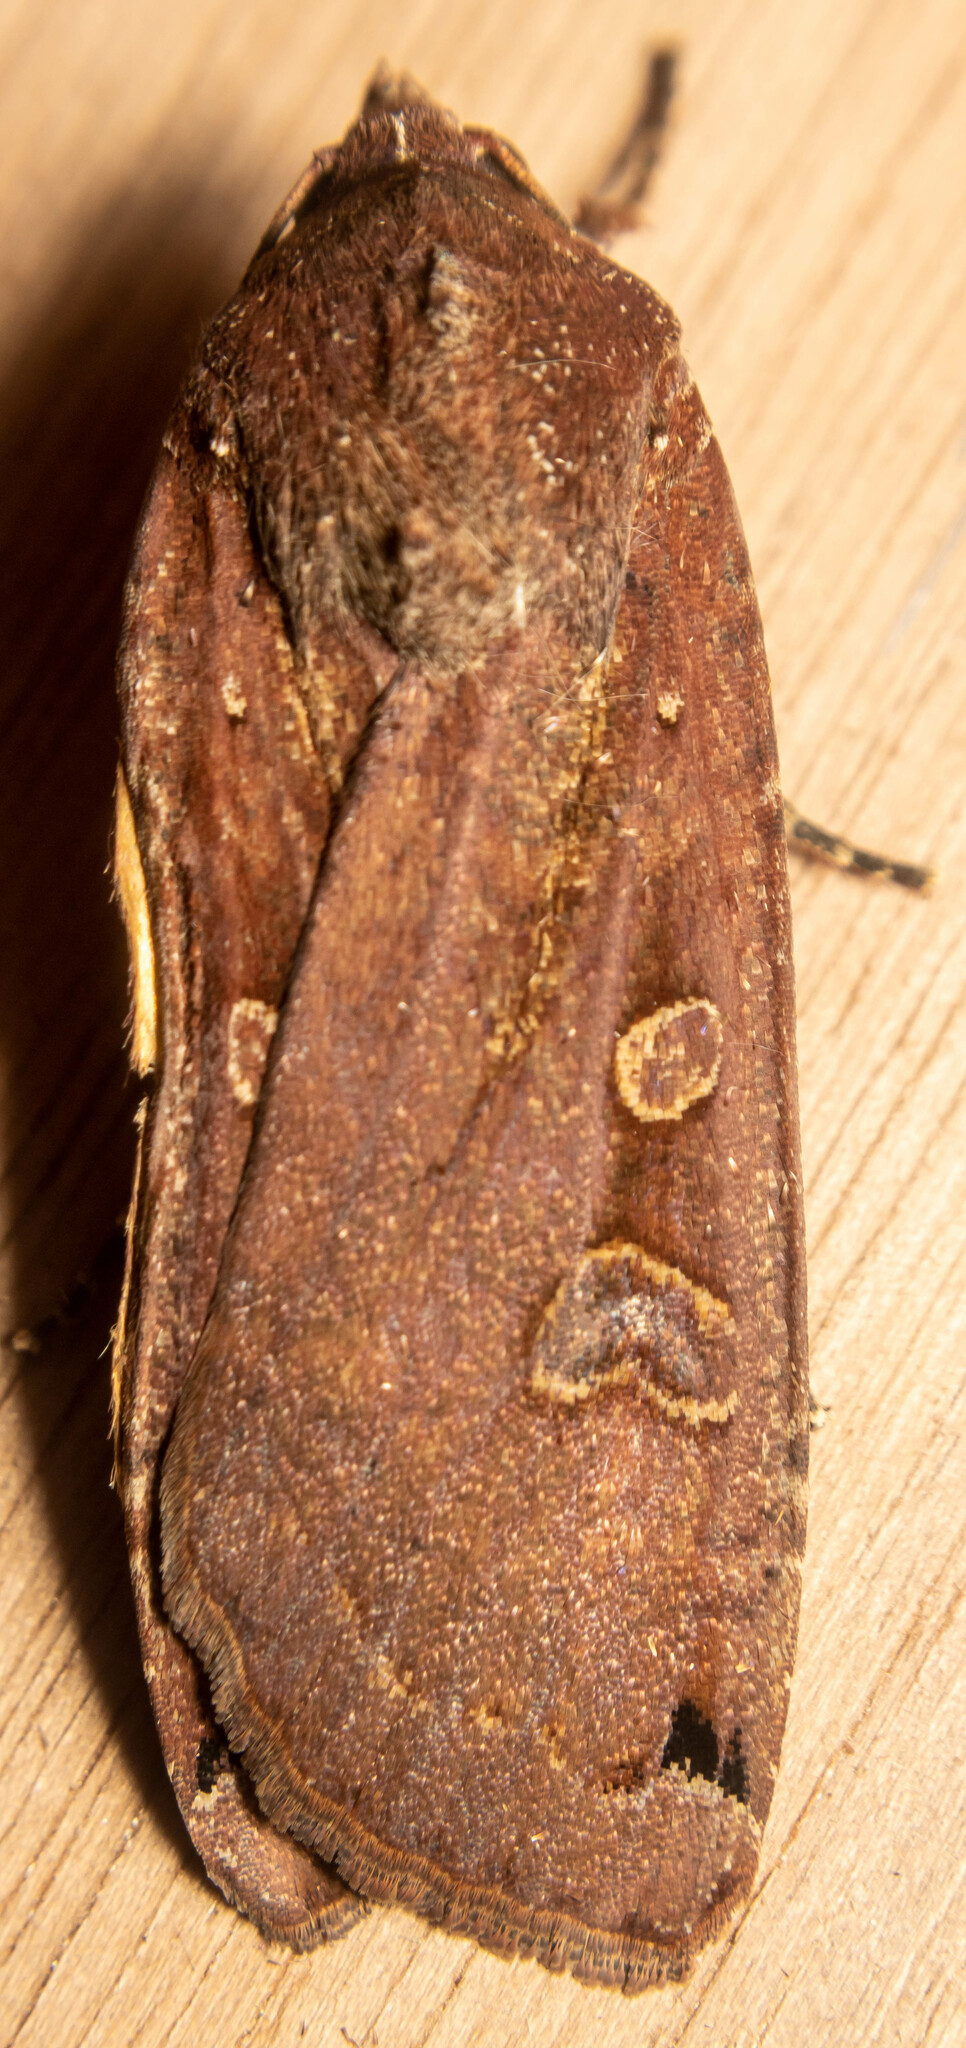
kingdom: Animalia
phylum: Arthropoda
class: Insecta
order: Lepidoptera
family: Noctuidae
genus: Noctua
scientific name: Noctua pronuba
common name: Large yellow underwing
